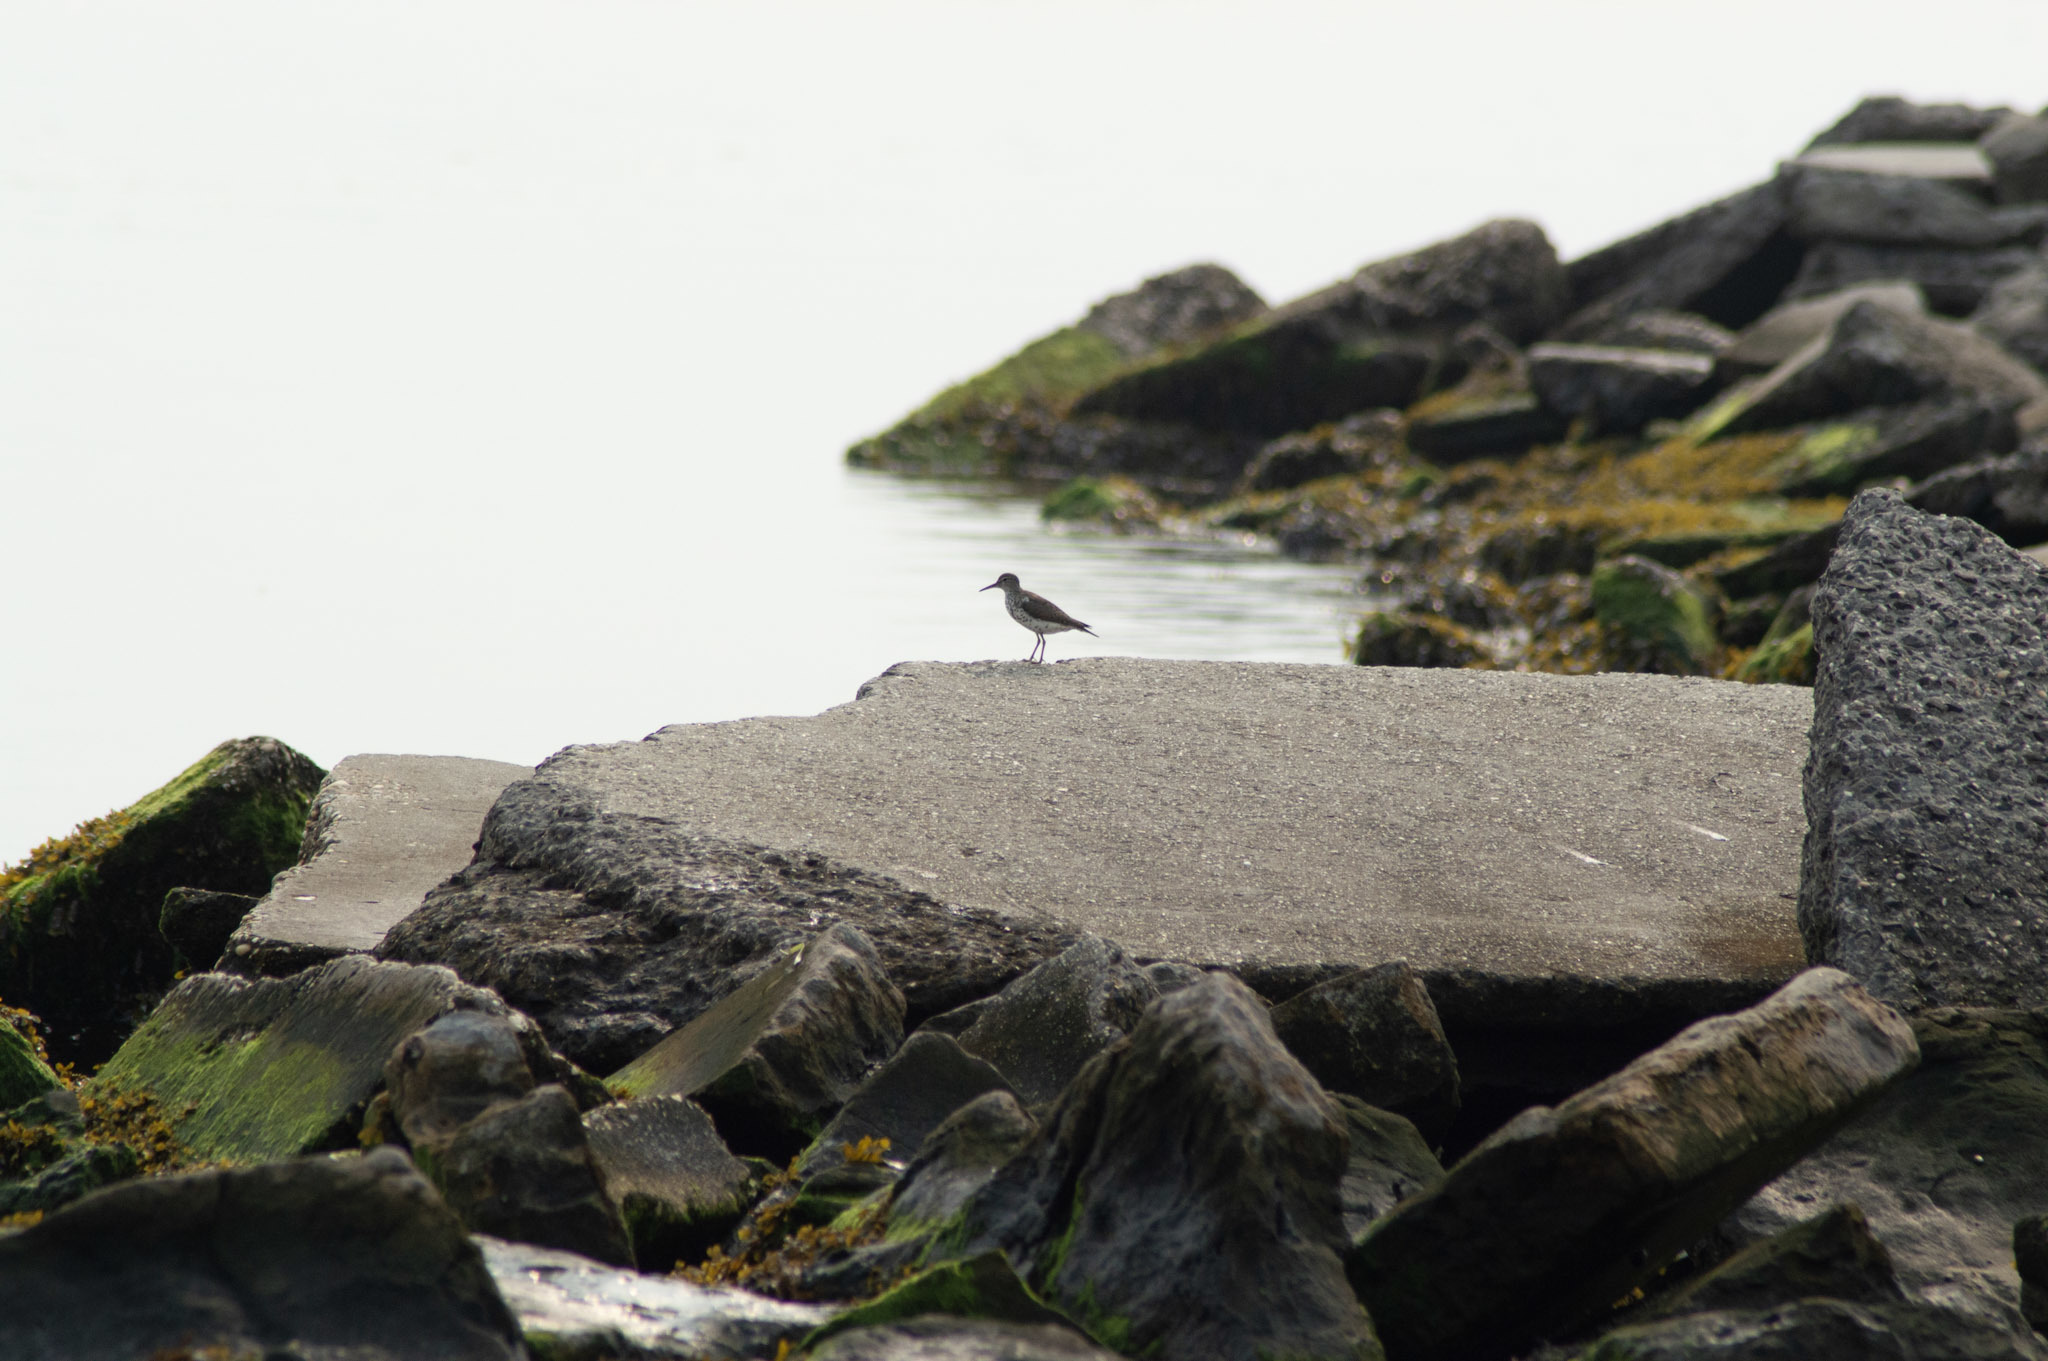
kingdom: Animalia
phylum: Chordata
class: Aves
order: Charadriiformes
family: Scolopacidae
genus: Actitis
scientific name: Actitis macularius
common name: Spotted sandpiper
